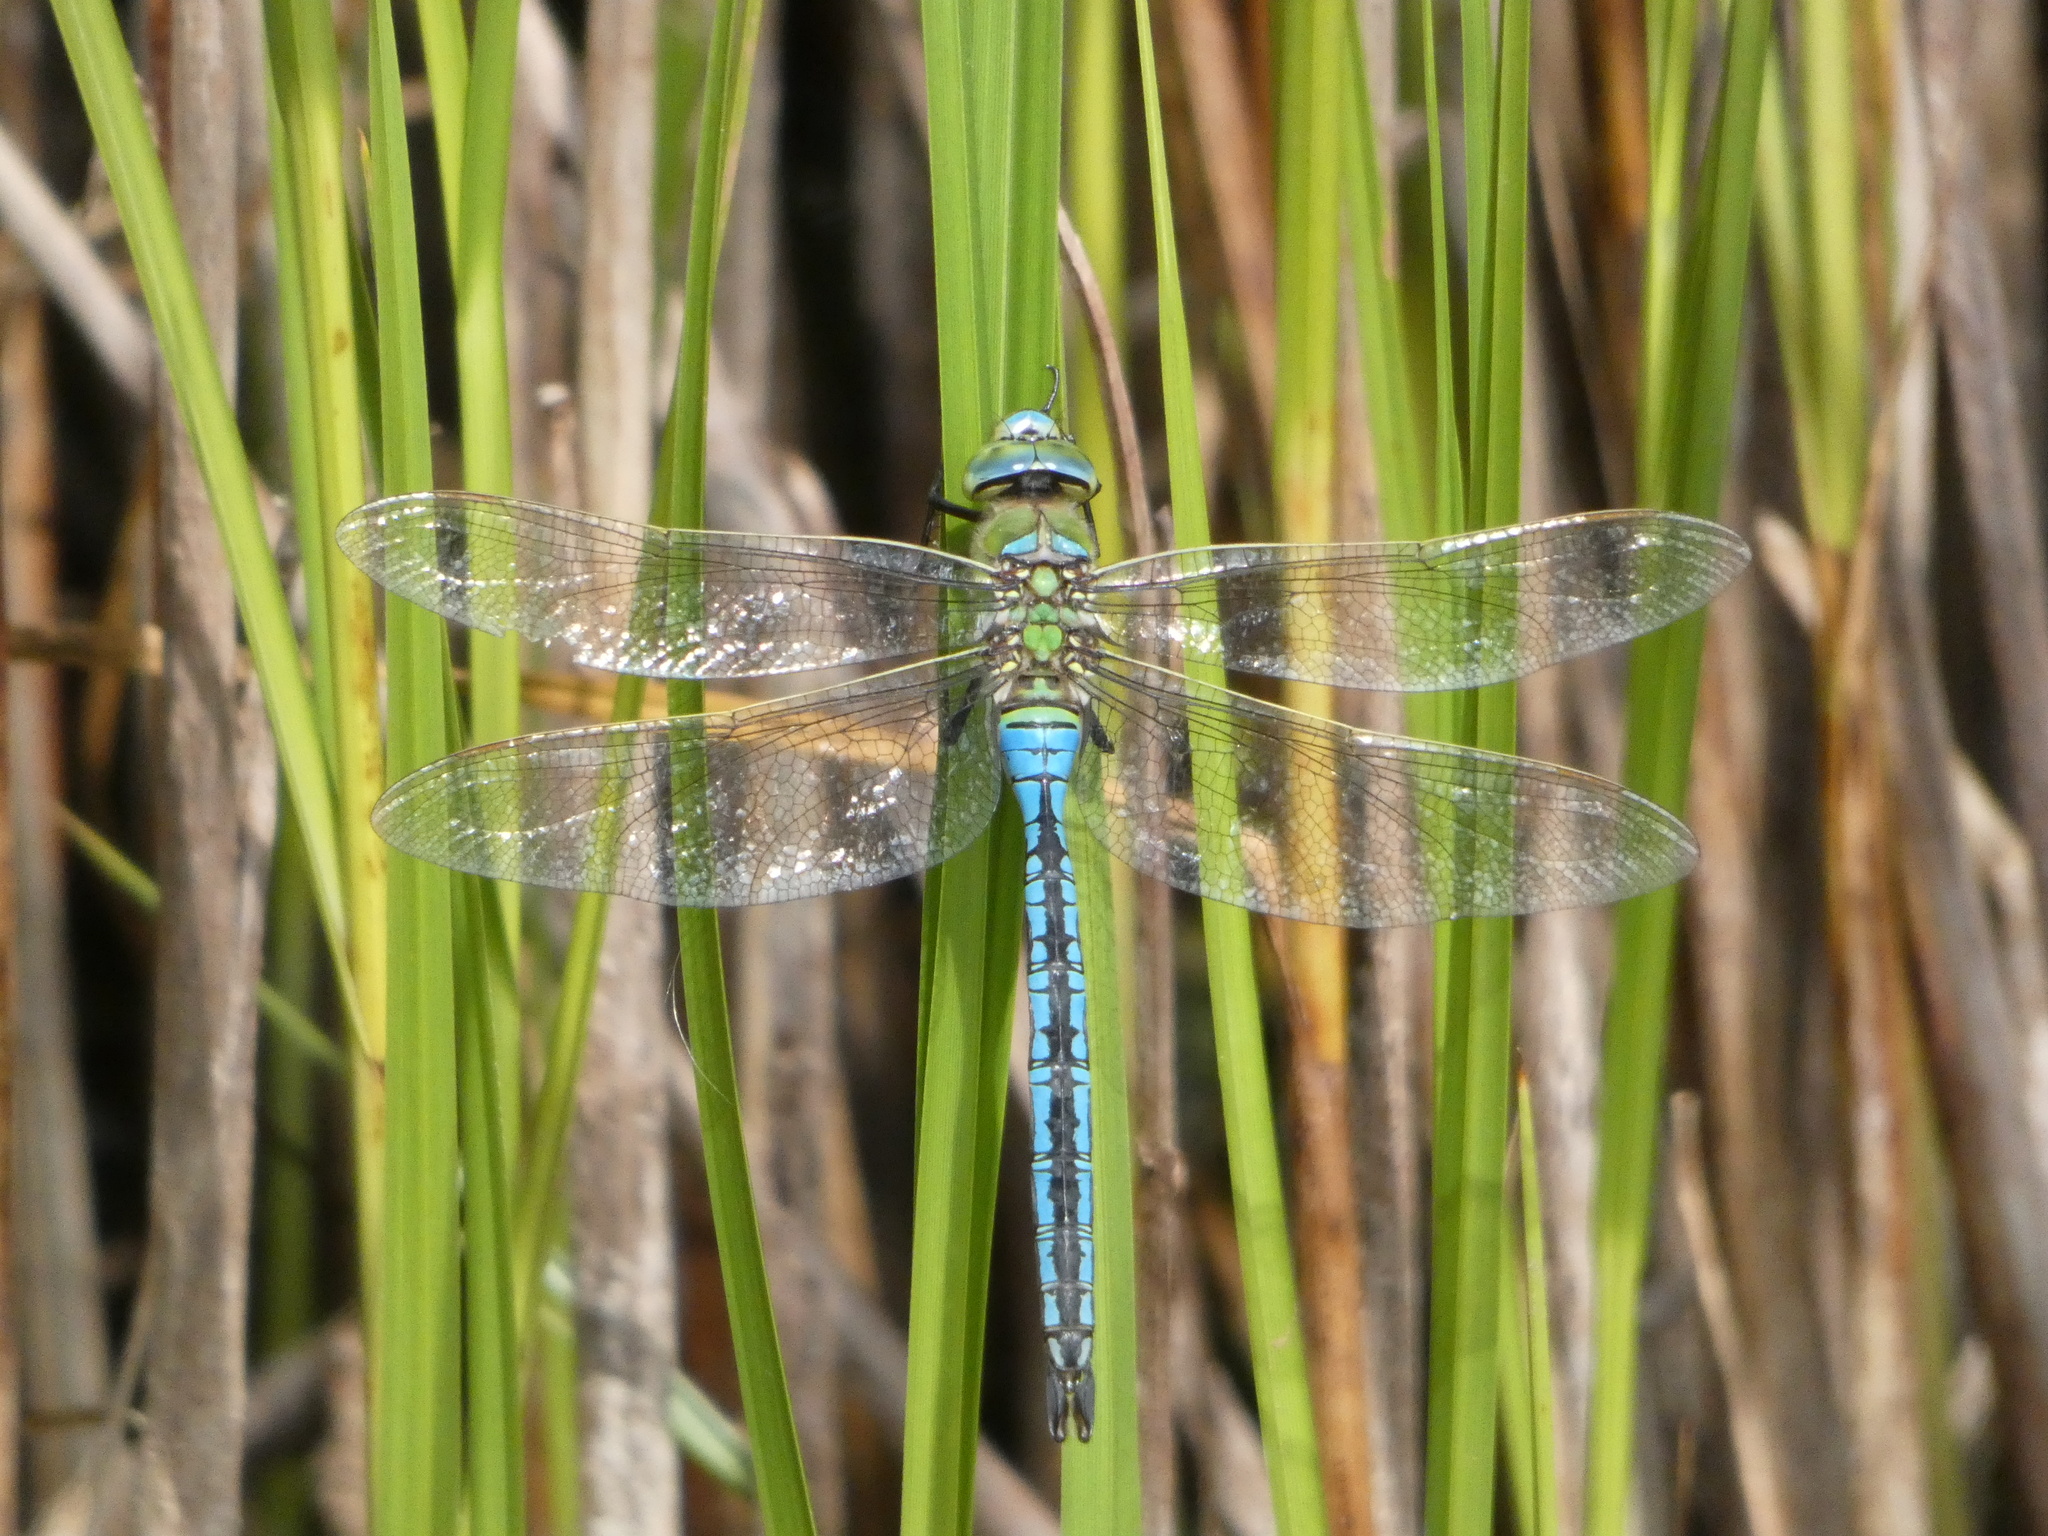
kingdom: Animalia
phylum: Arthropoda
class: Insecta
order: Odonata
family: Aeshnidae
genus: Anax
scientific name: Anax imperator
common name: Emperor dragonfly
